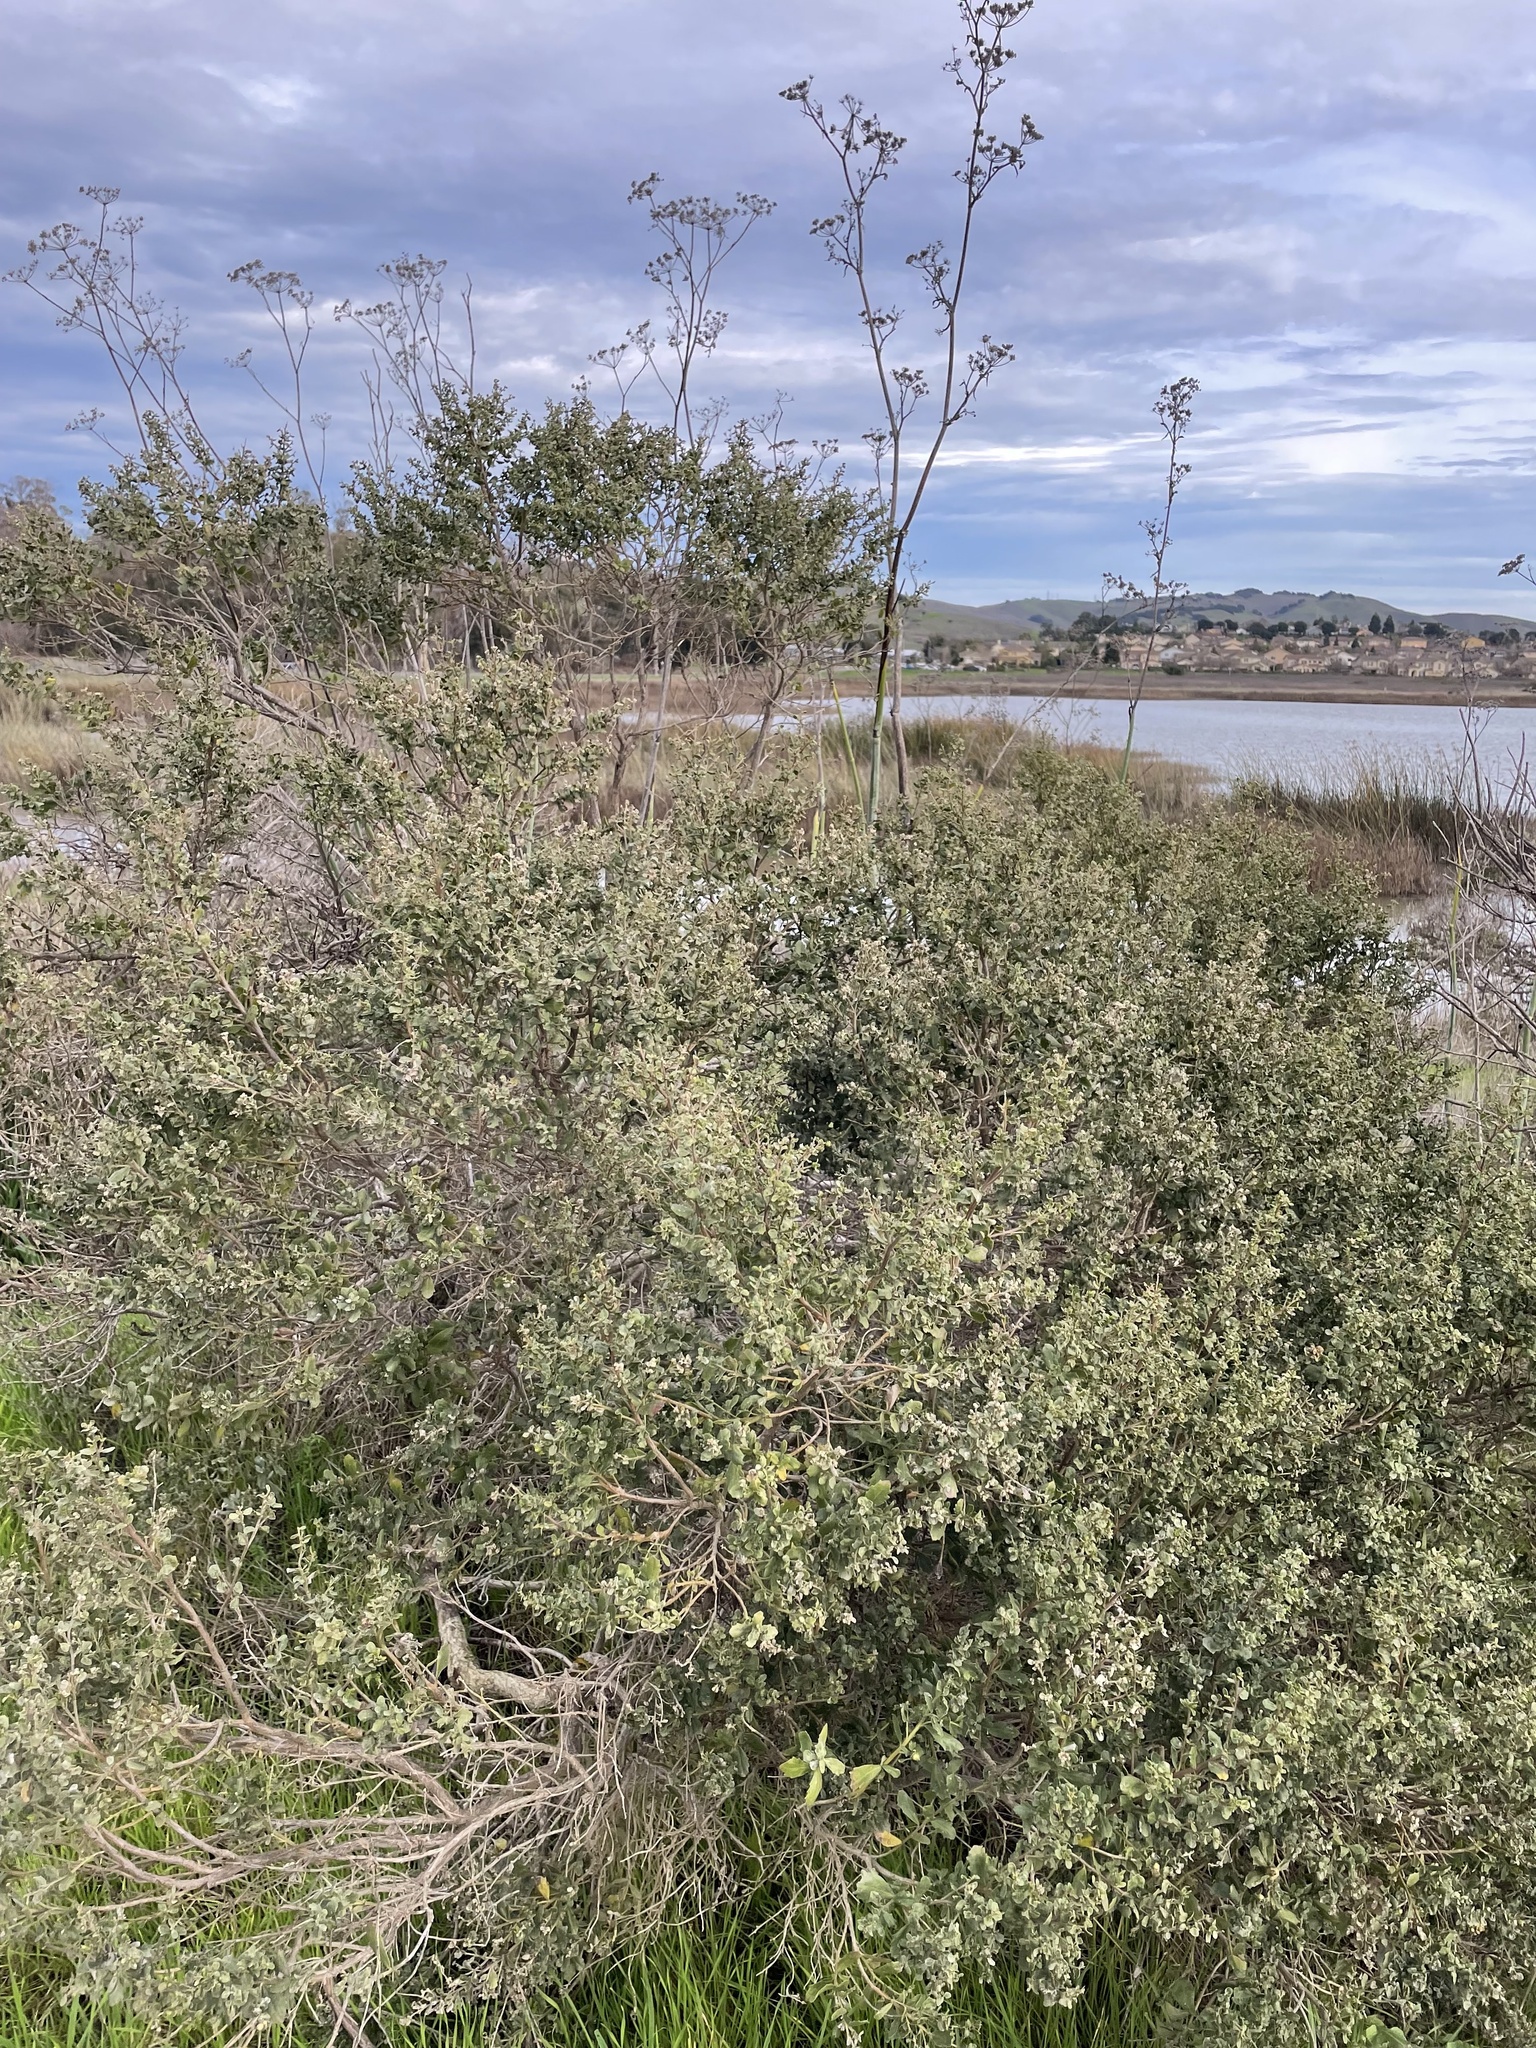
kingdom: Plantae
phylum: Tracheophyta
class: Magnoliopsida
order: Asterales
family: Asteraceae
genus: Baccharis
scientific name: Baccharis pilularis
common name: Coyotebrush
